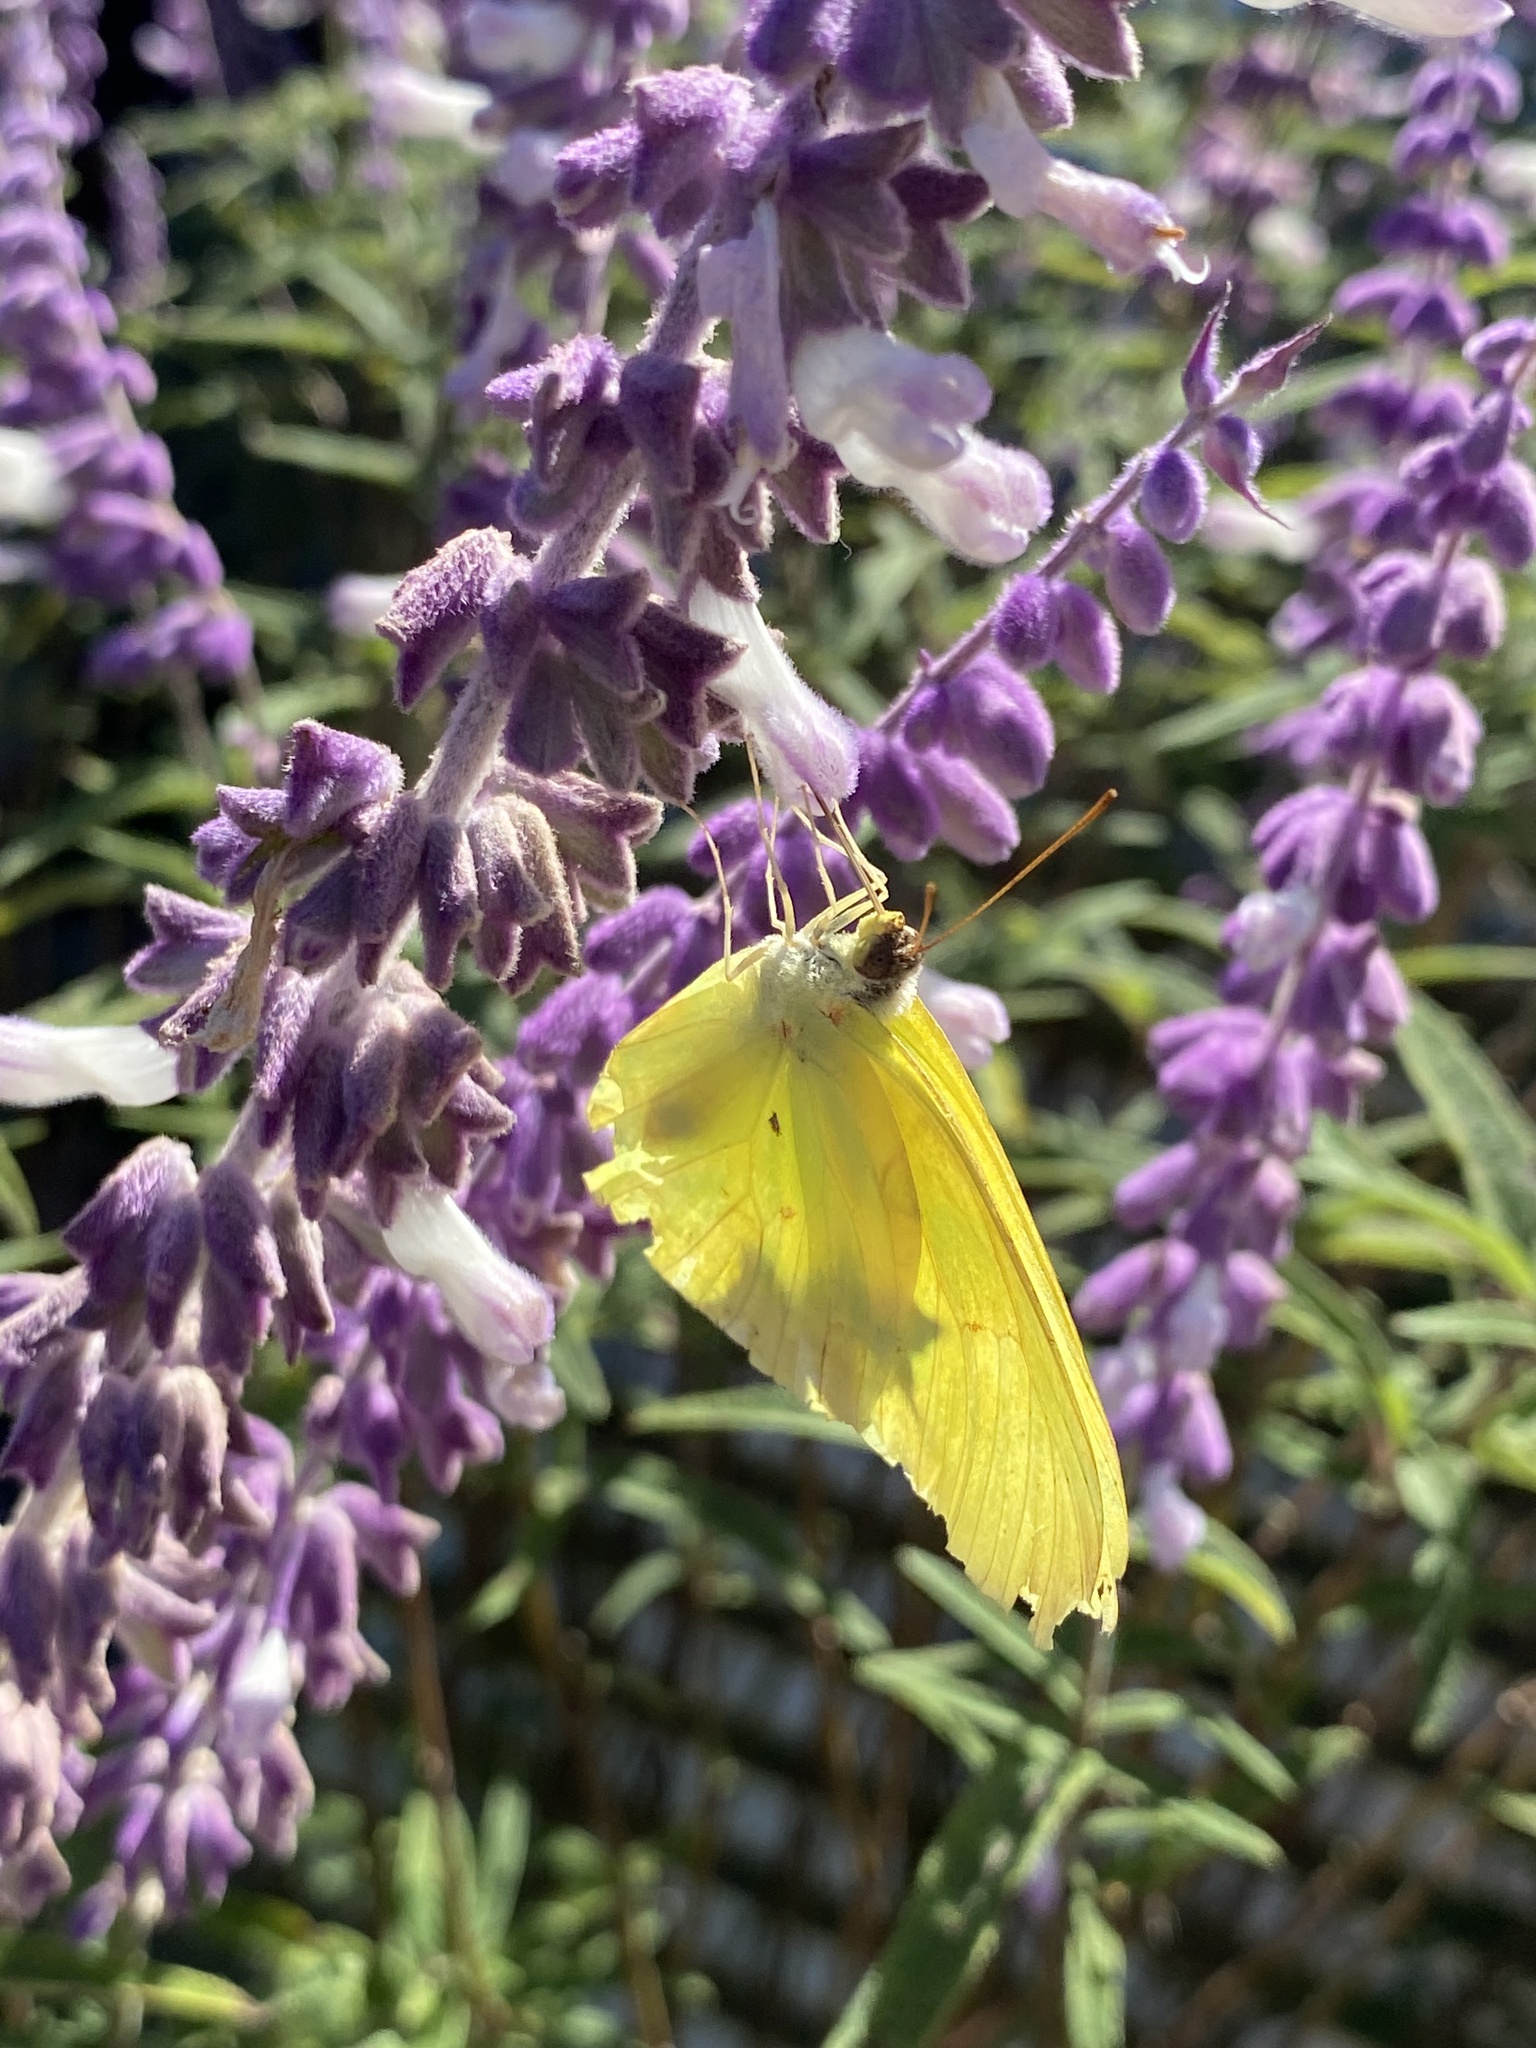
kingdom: Animalia
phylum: Arthropoda
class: Insecta
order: Lepidoptera
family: Pieridae
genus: Phoebis
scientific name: Phoebis sennae
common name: Cloudless sulphur
